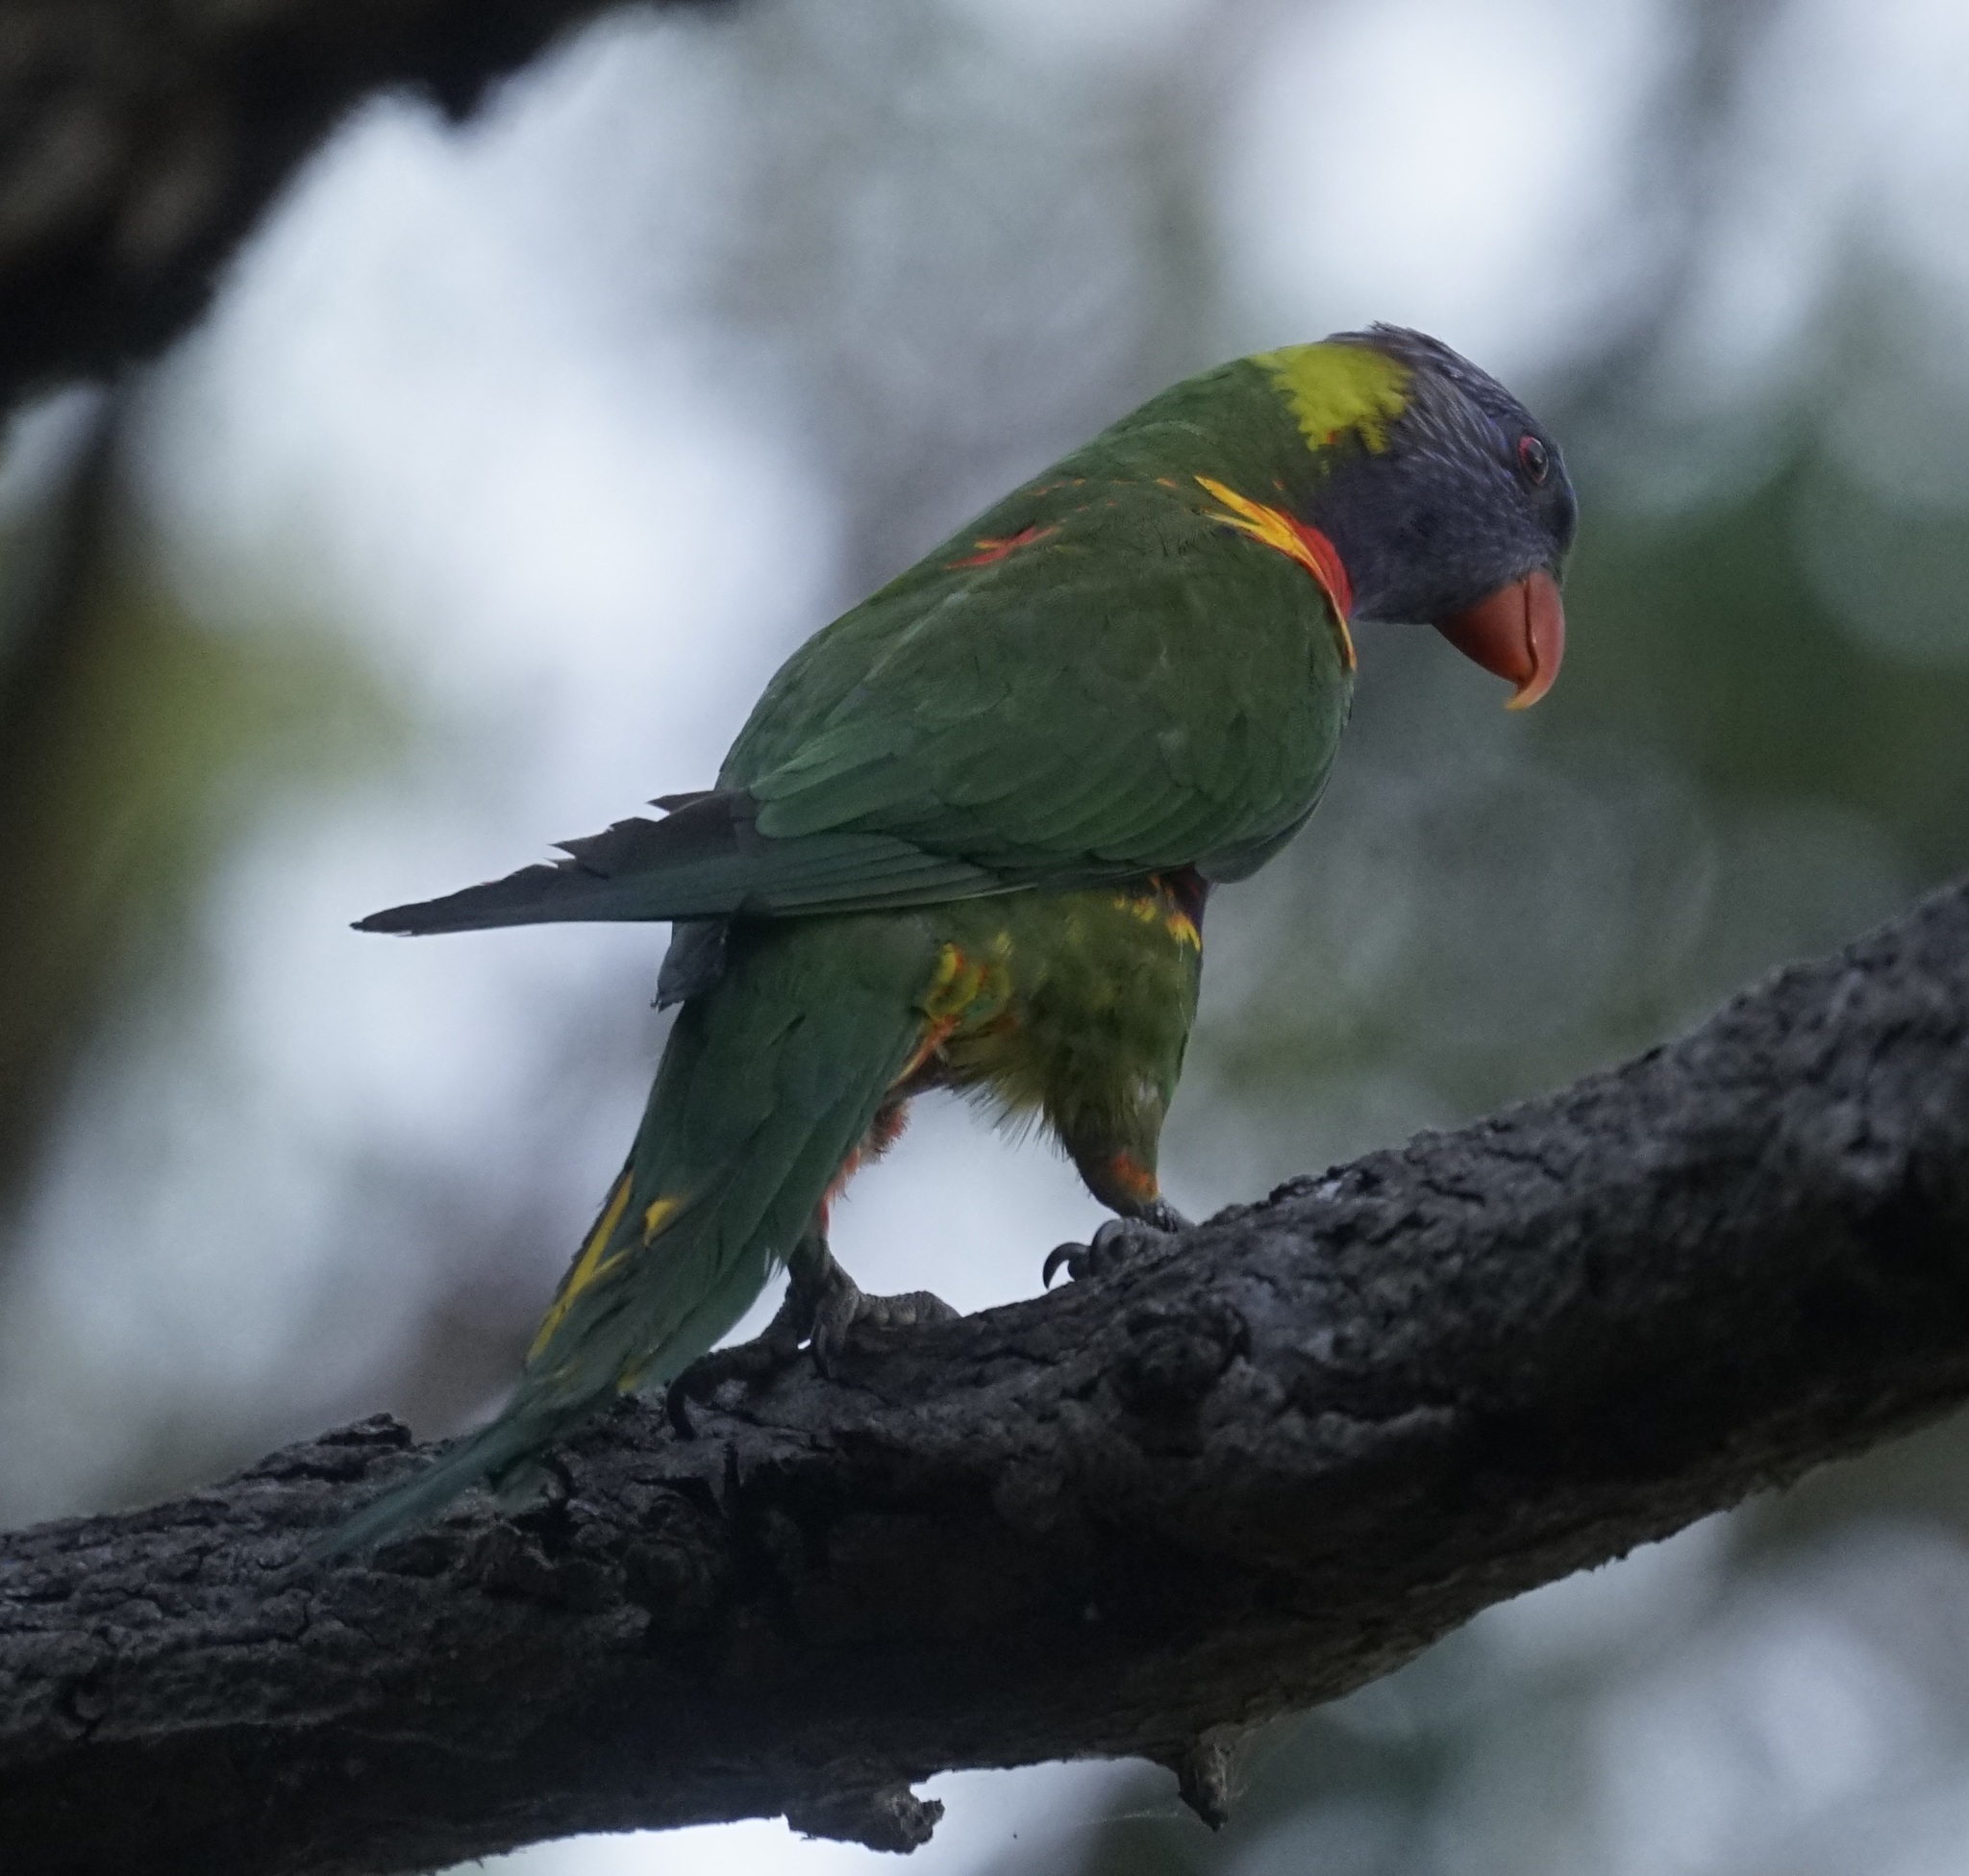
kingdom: Animalia
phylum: Chordata
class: Aves
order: Psittaciformes
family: Psittacidae
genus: Trichoglossus
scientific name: Trichoglossus haematodus
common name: Coconut lorikeet
